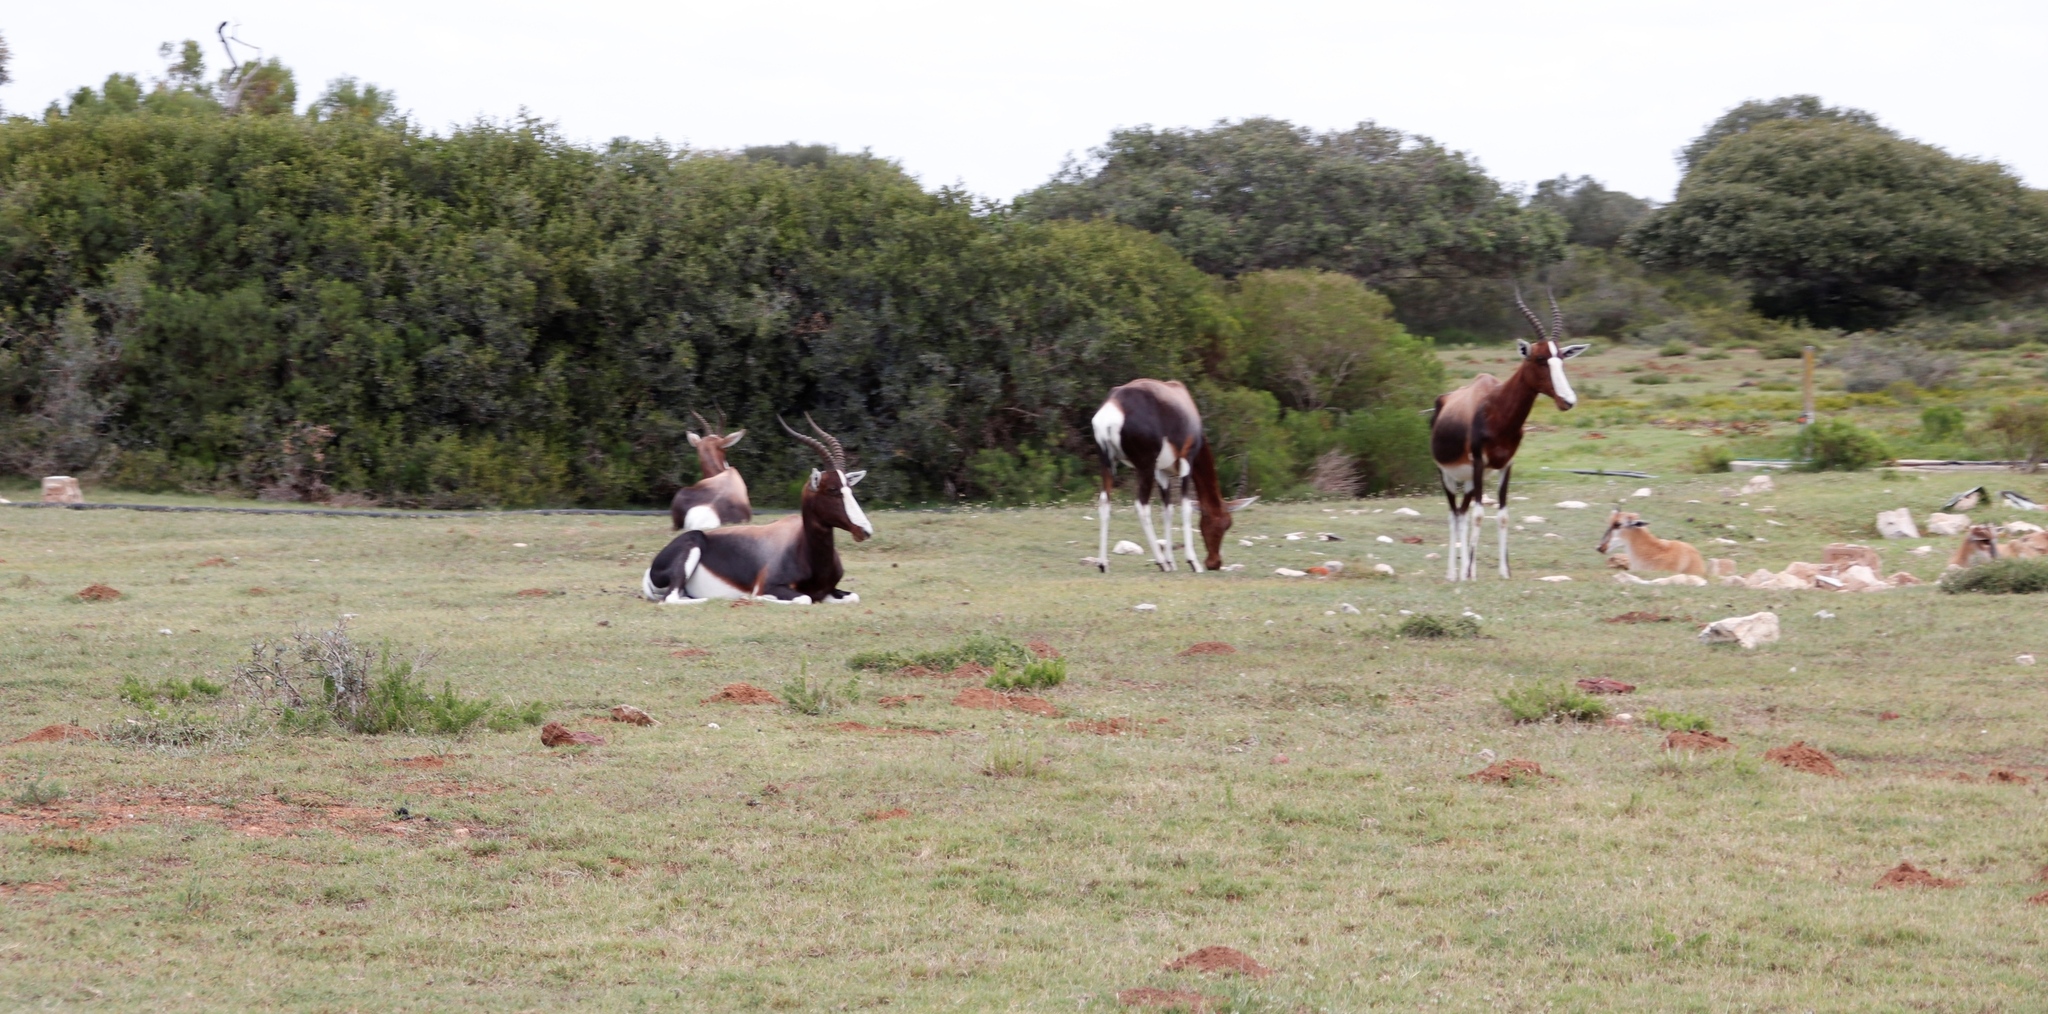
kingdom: Animalia
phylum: Chordata
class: Mammalia
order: Artiodactyla
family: Bovidae
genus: Damaliscus
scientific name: Damaliscus pygargus
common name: Bontebok
